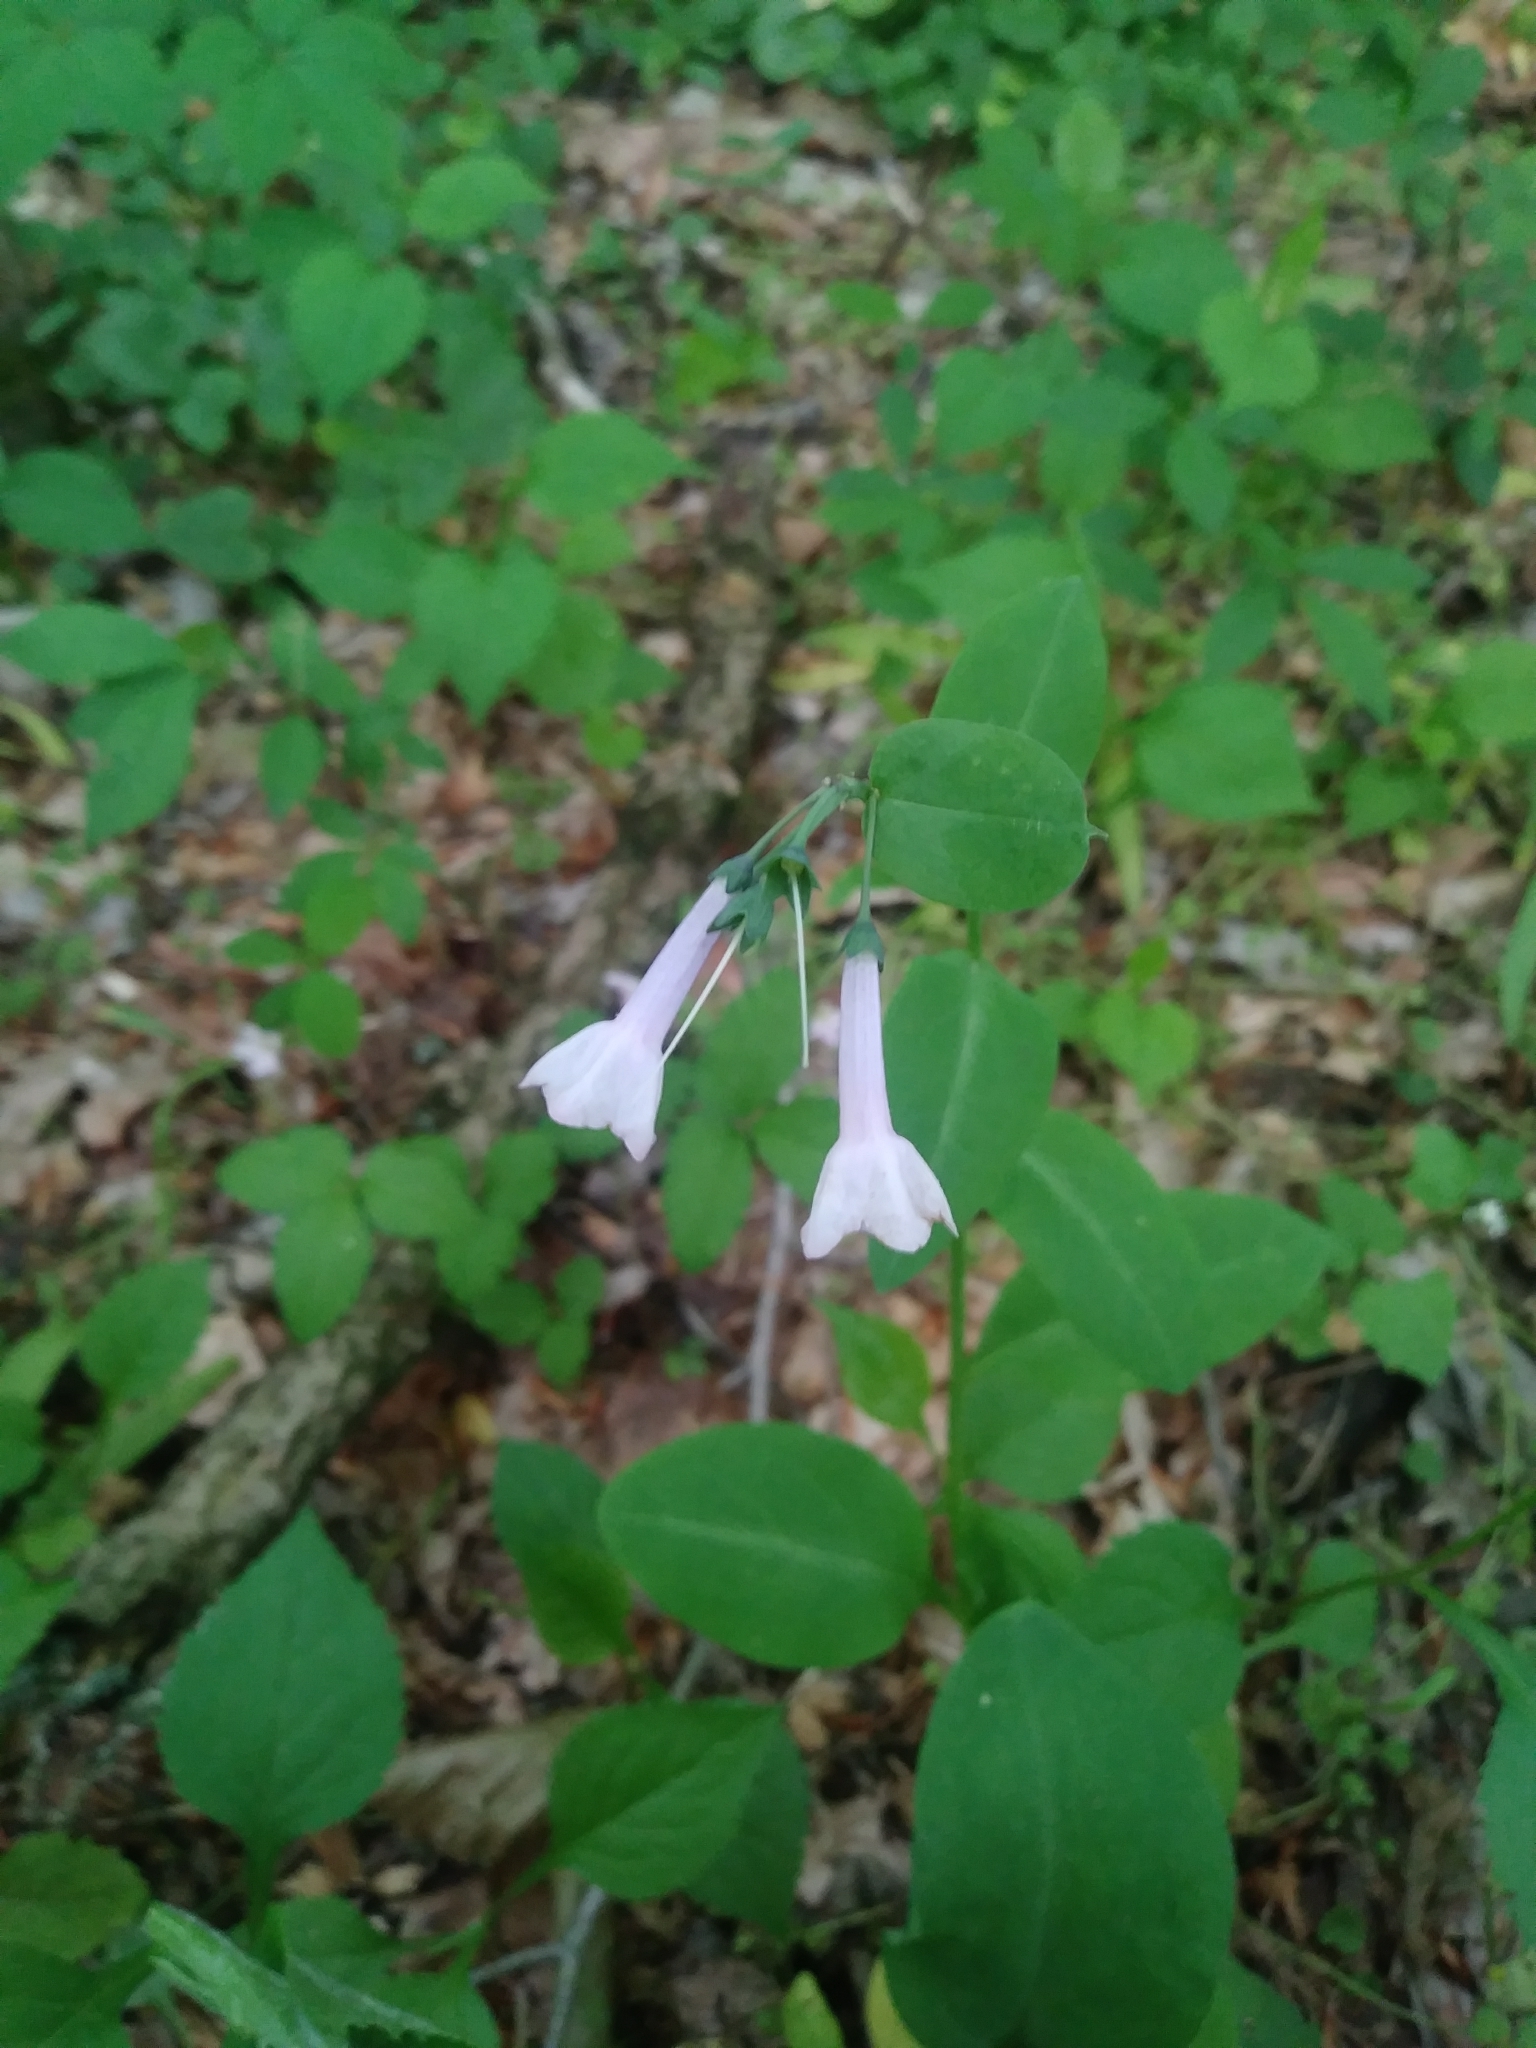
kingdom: Plantae
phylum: Tracheophyta
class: Magnoliopsida
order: Boraginales
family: Boraginaceae
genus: Mertensia
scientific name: Mertensia virginica
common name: Virginia bluebells
